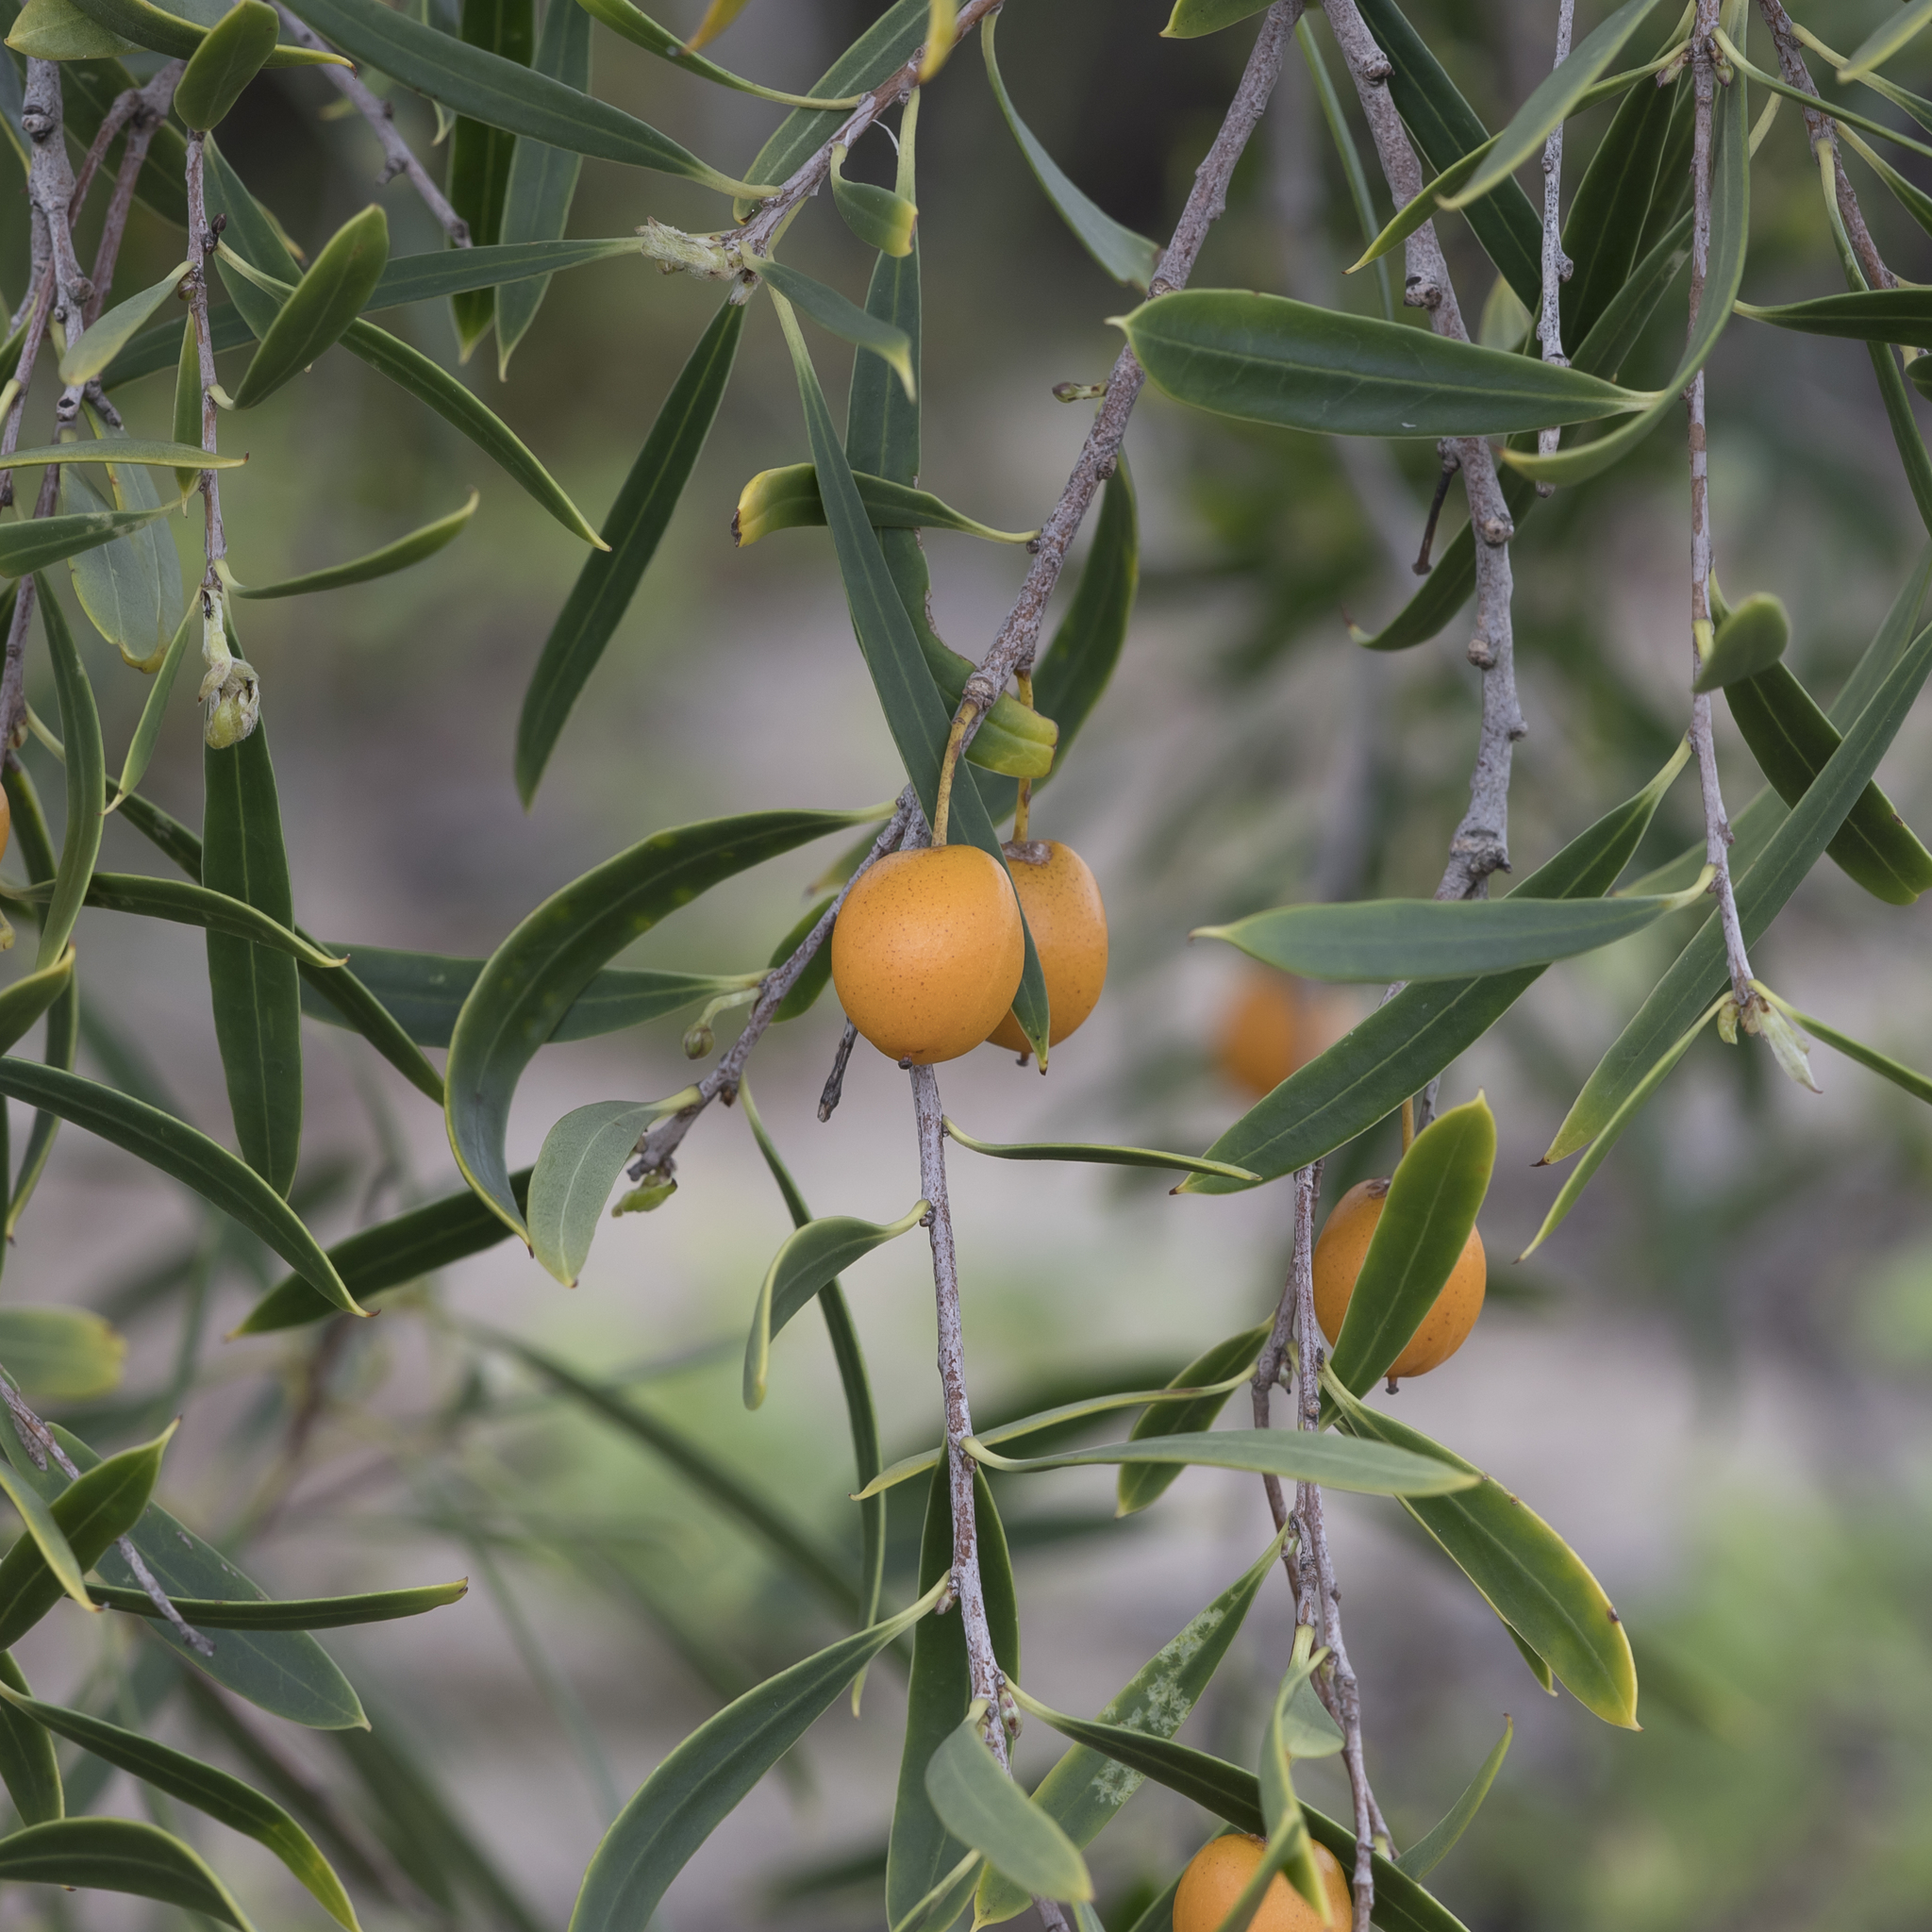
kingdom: Plantae
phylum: Tracheophyta
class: Magnoliopsida
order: Apiales
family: Pittosporaceae
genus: Pittosporum
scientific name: Pittosporum angustifolium
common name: Weeping pittosporum
